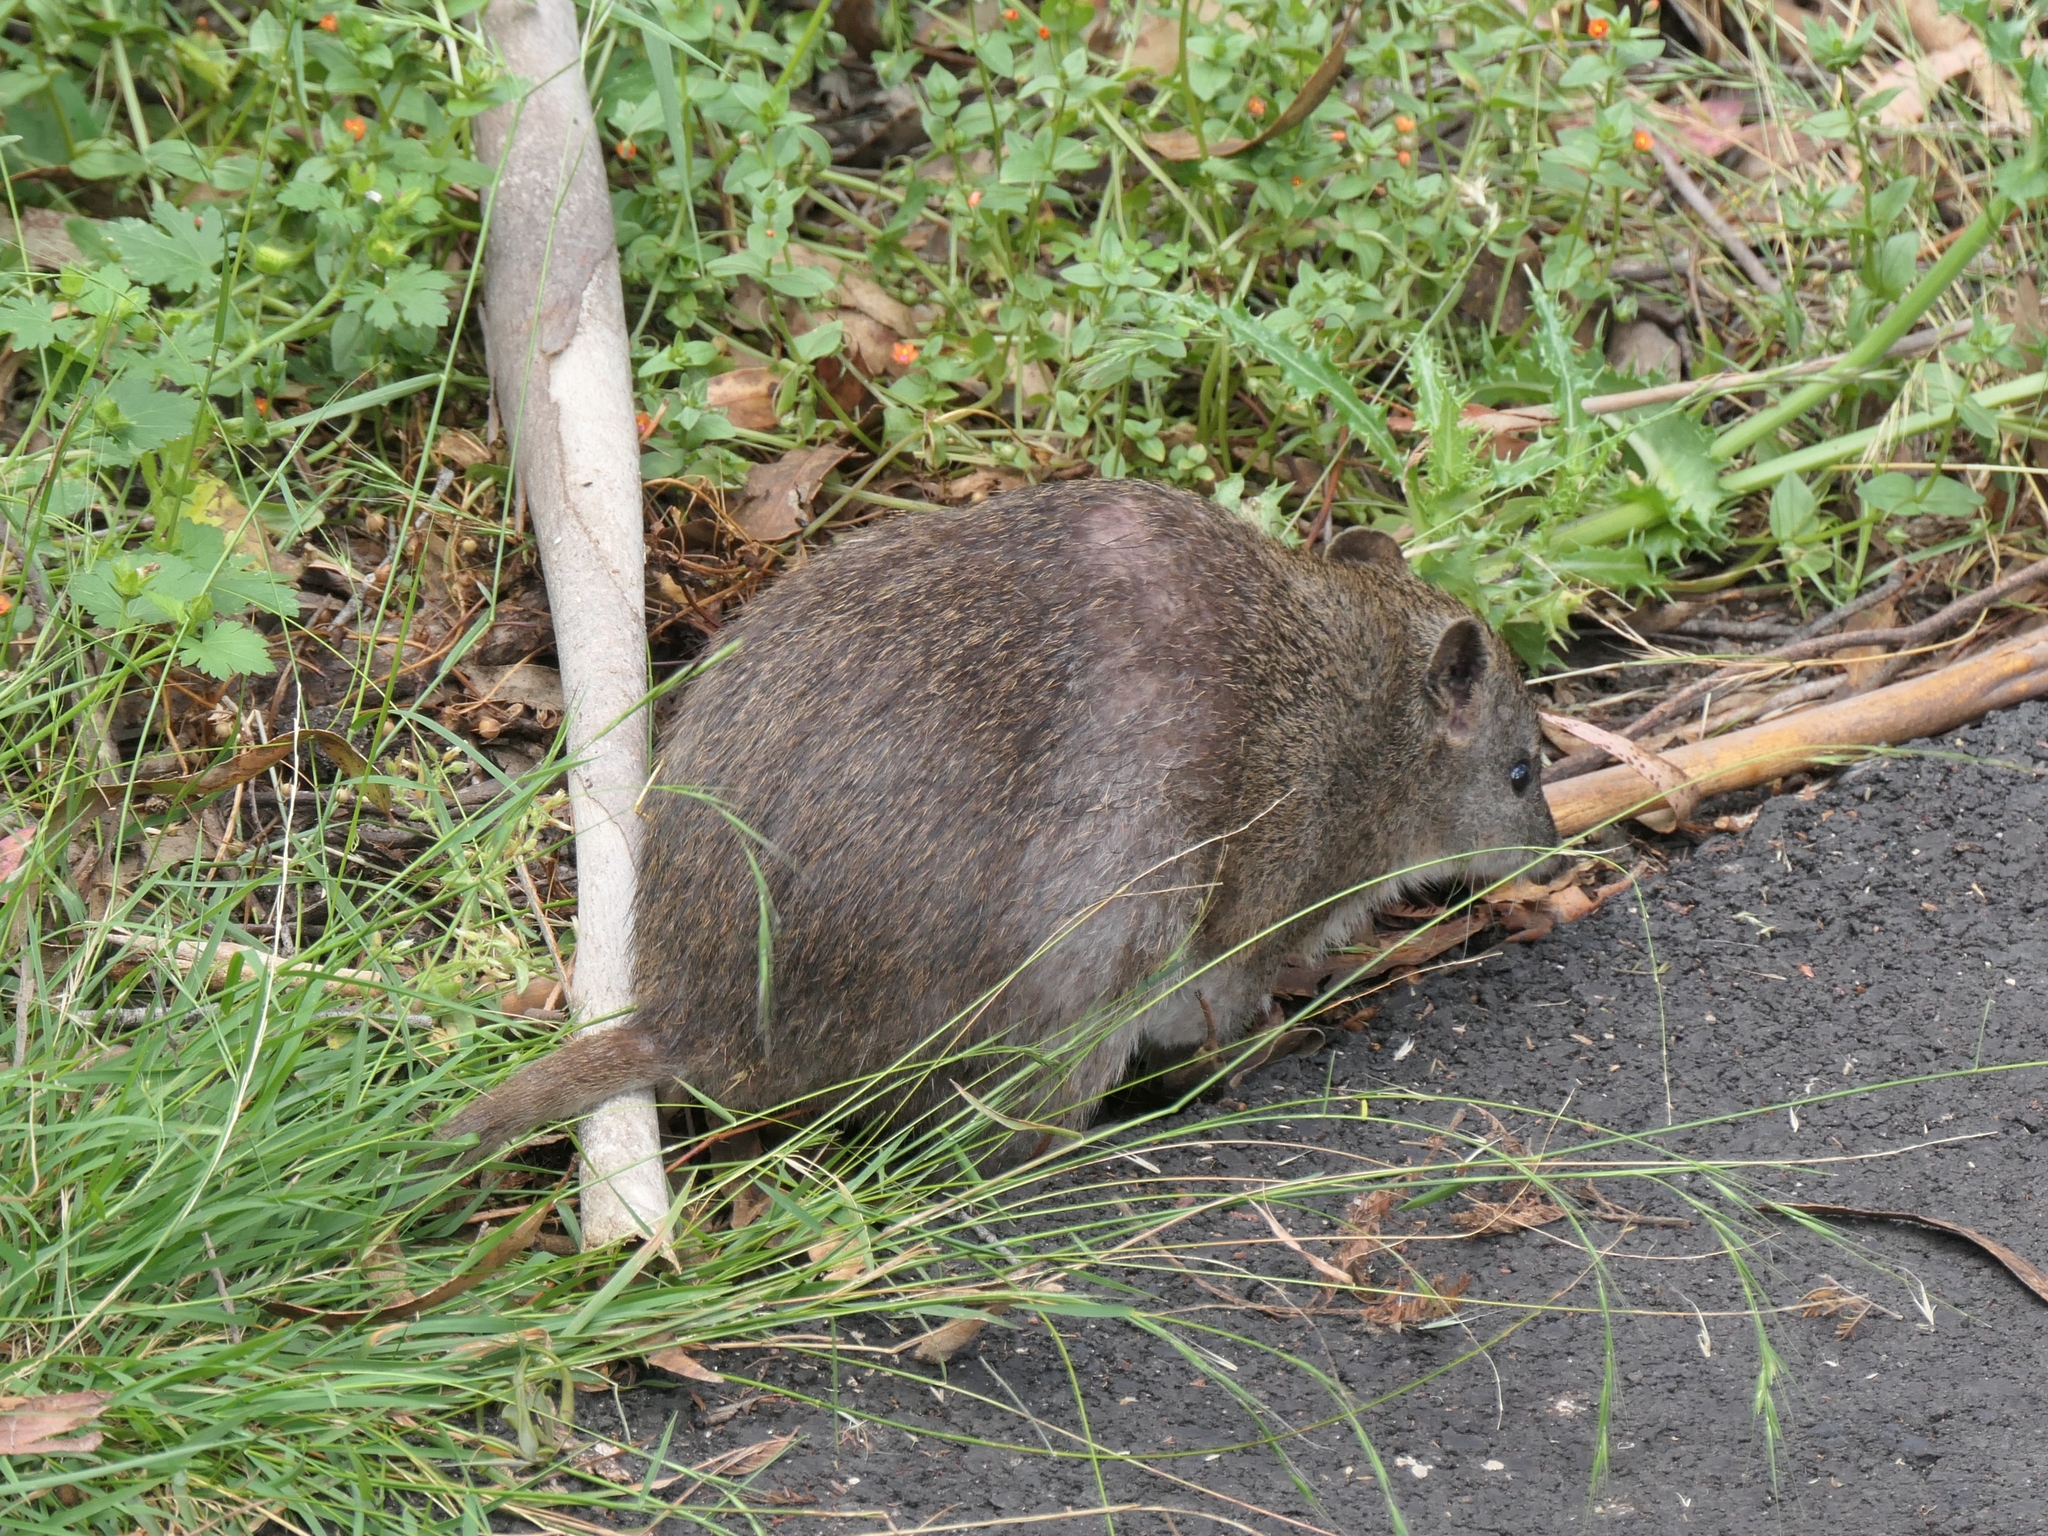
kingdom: Animalia
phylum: Chordata
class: Mammalia
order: Peramelemorphia
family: Peramelidae
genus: Isoodon
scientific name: Isoodon obesulus
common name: Southern brown bandicoot
